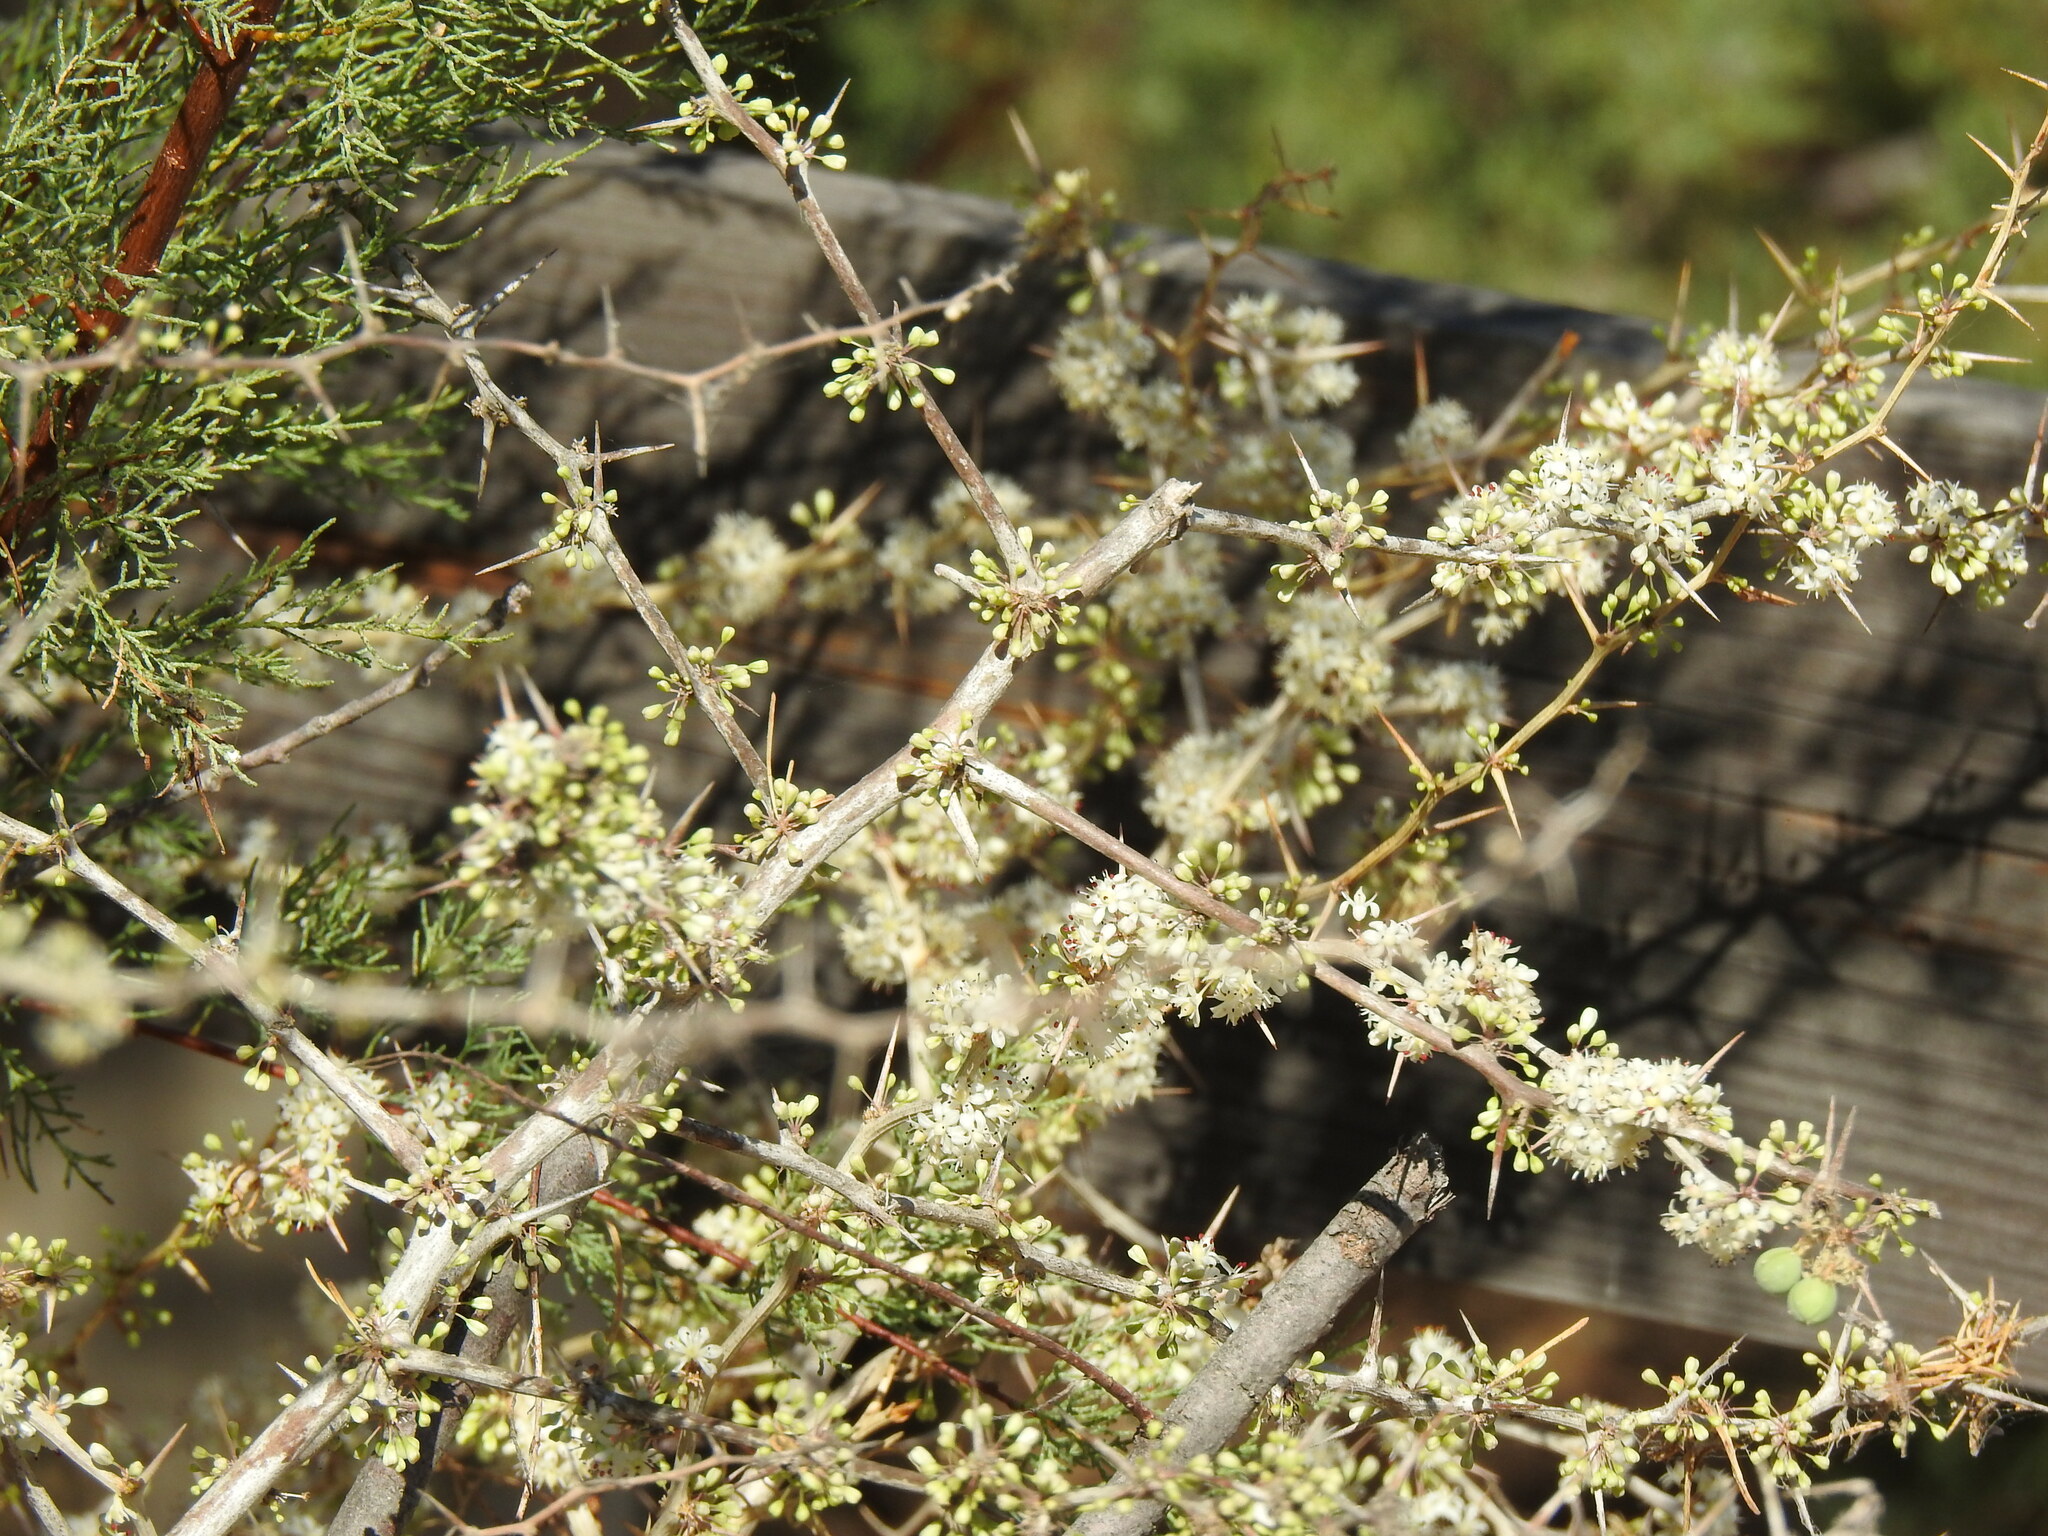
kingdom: Plantae
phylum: Tracheophyta
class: Liliopsida
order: Asparagales
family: Asparagaceae
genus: Asparagus
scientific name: Asparagus albus
